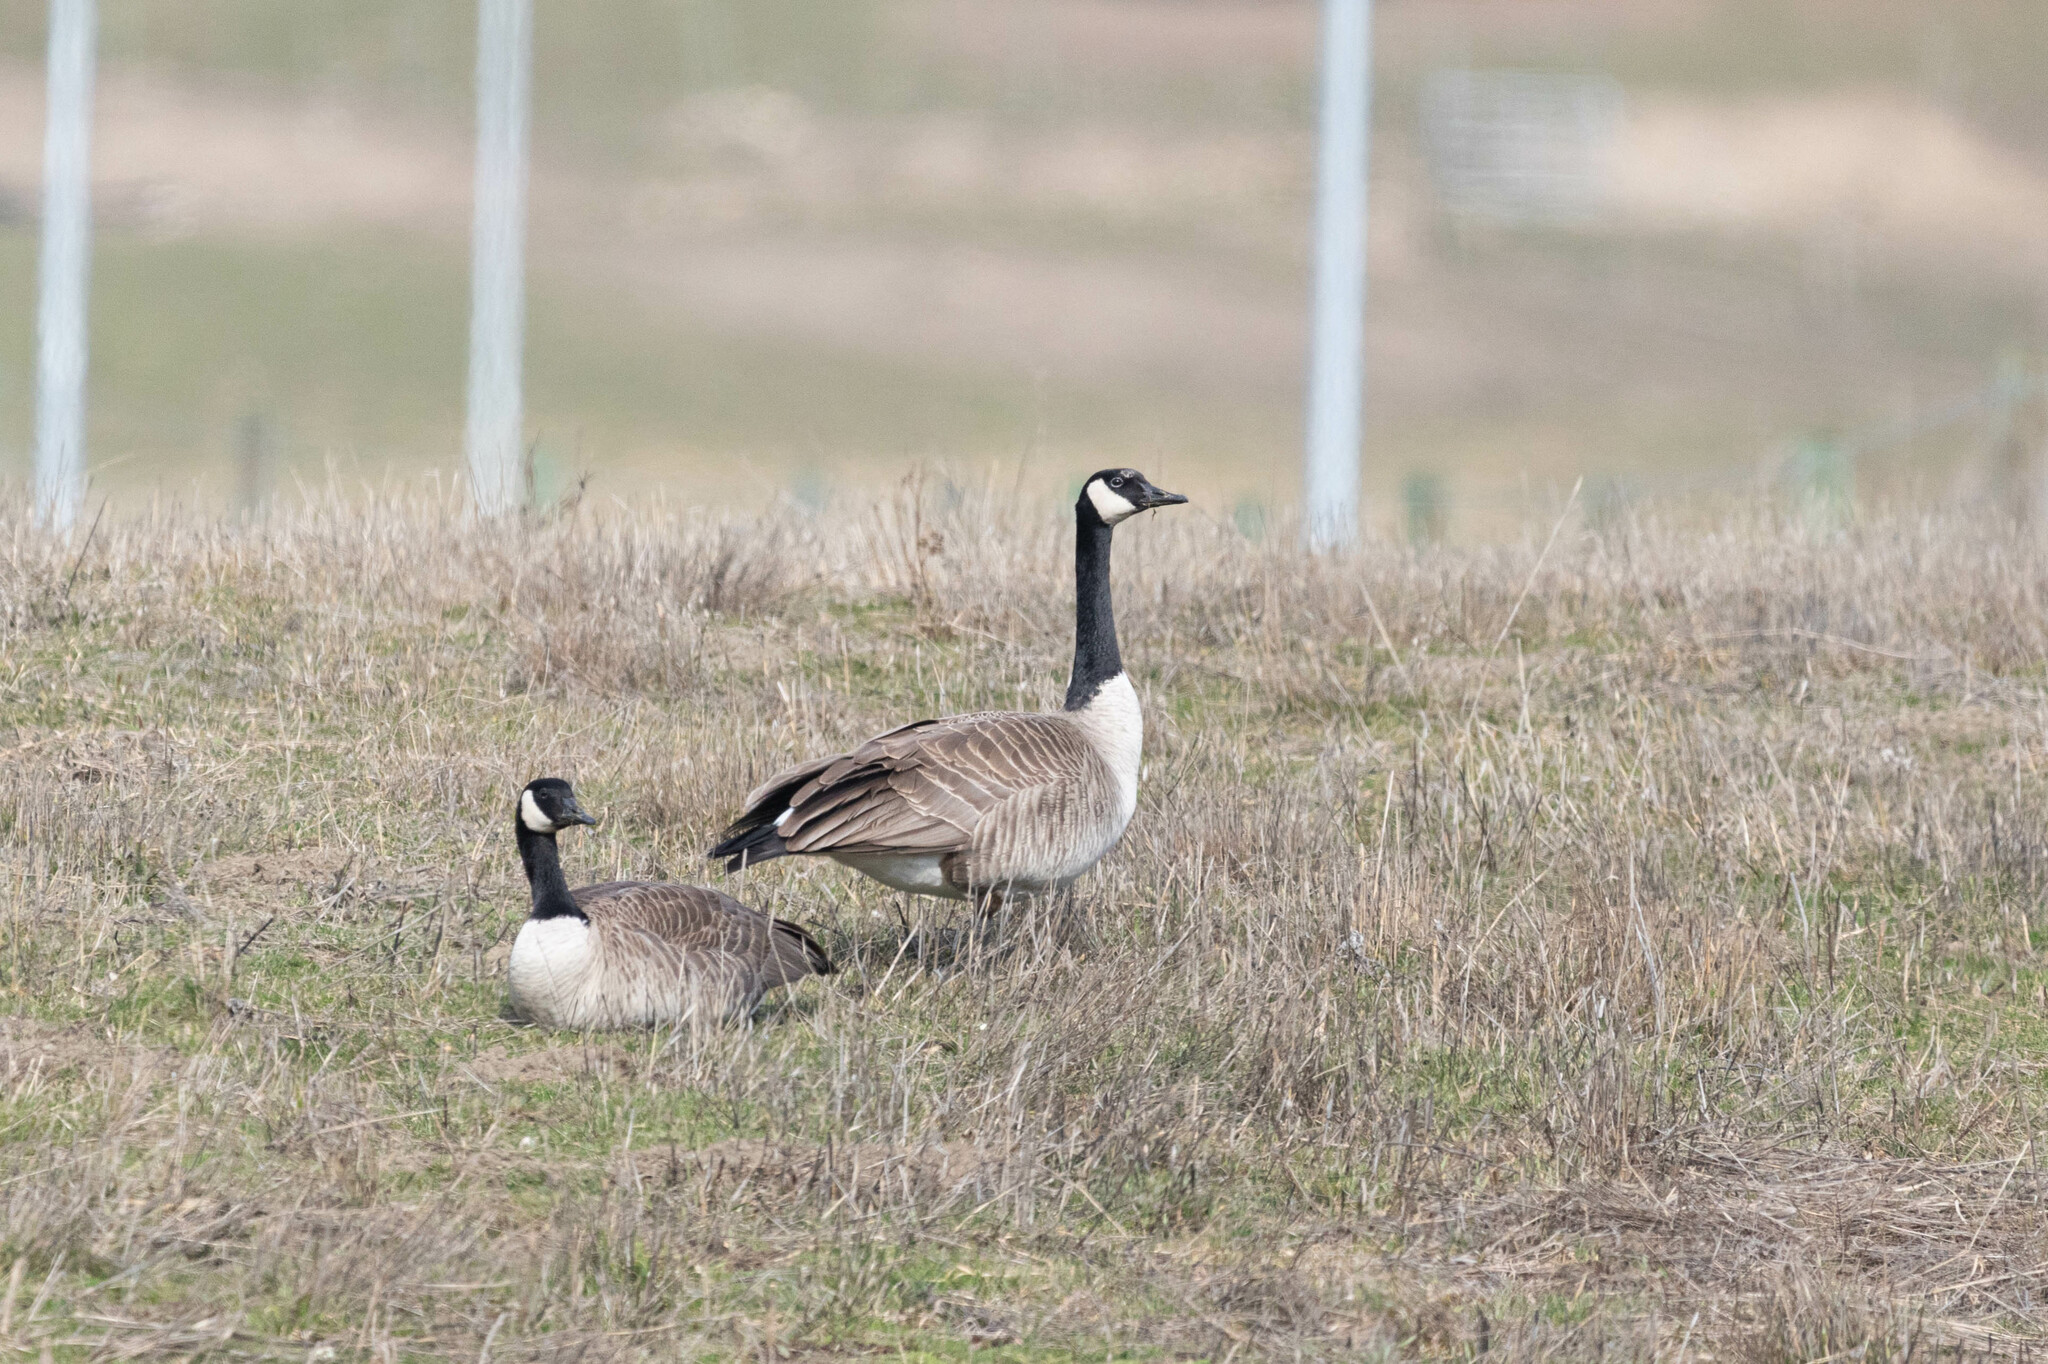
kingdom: Animalia
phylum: Chordata
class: Aves
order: Anseriformes
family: Anatidae
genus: Branta
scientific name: Branta canadensis
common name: Canada goose
